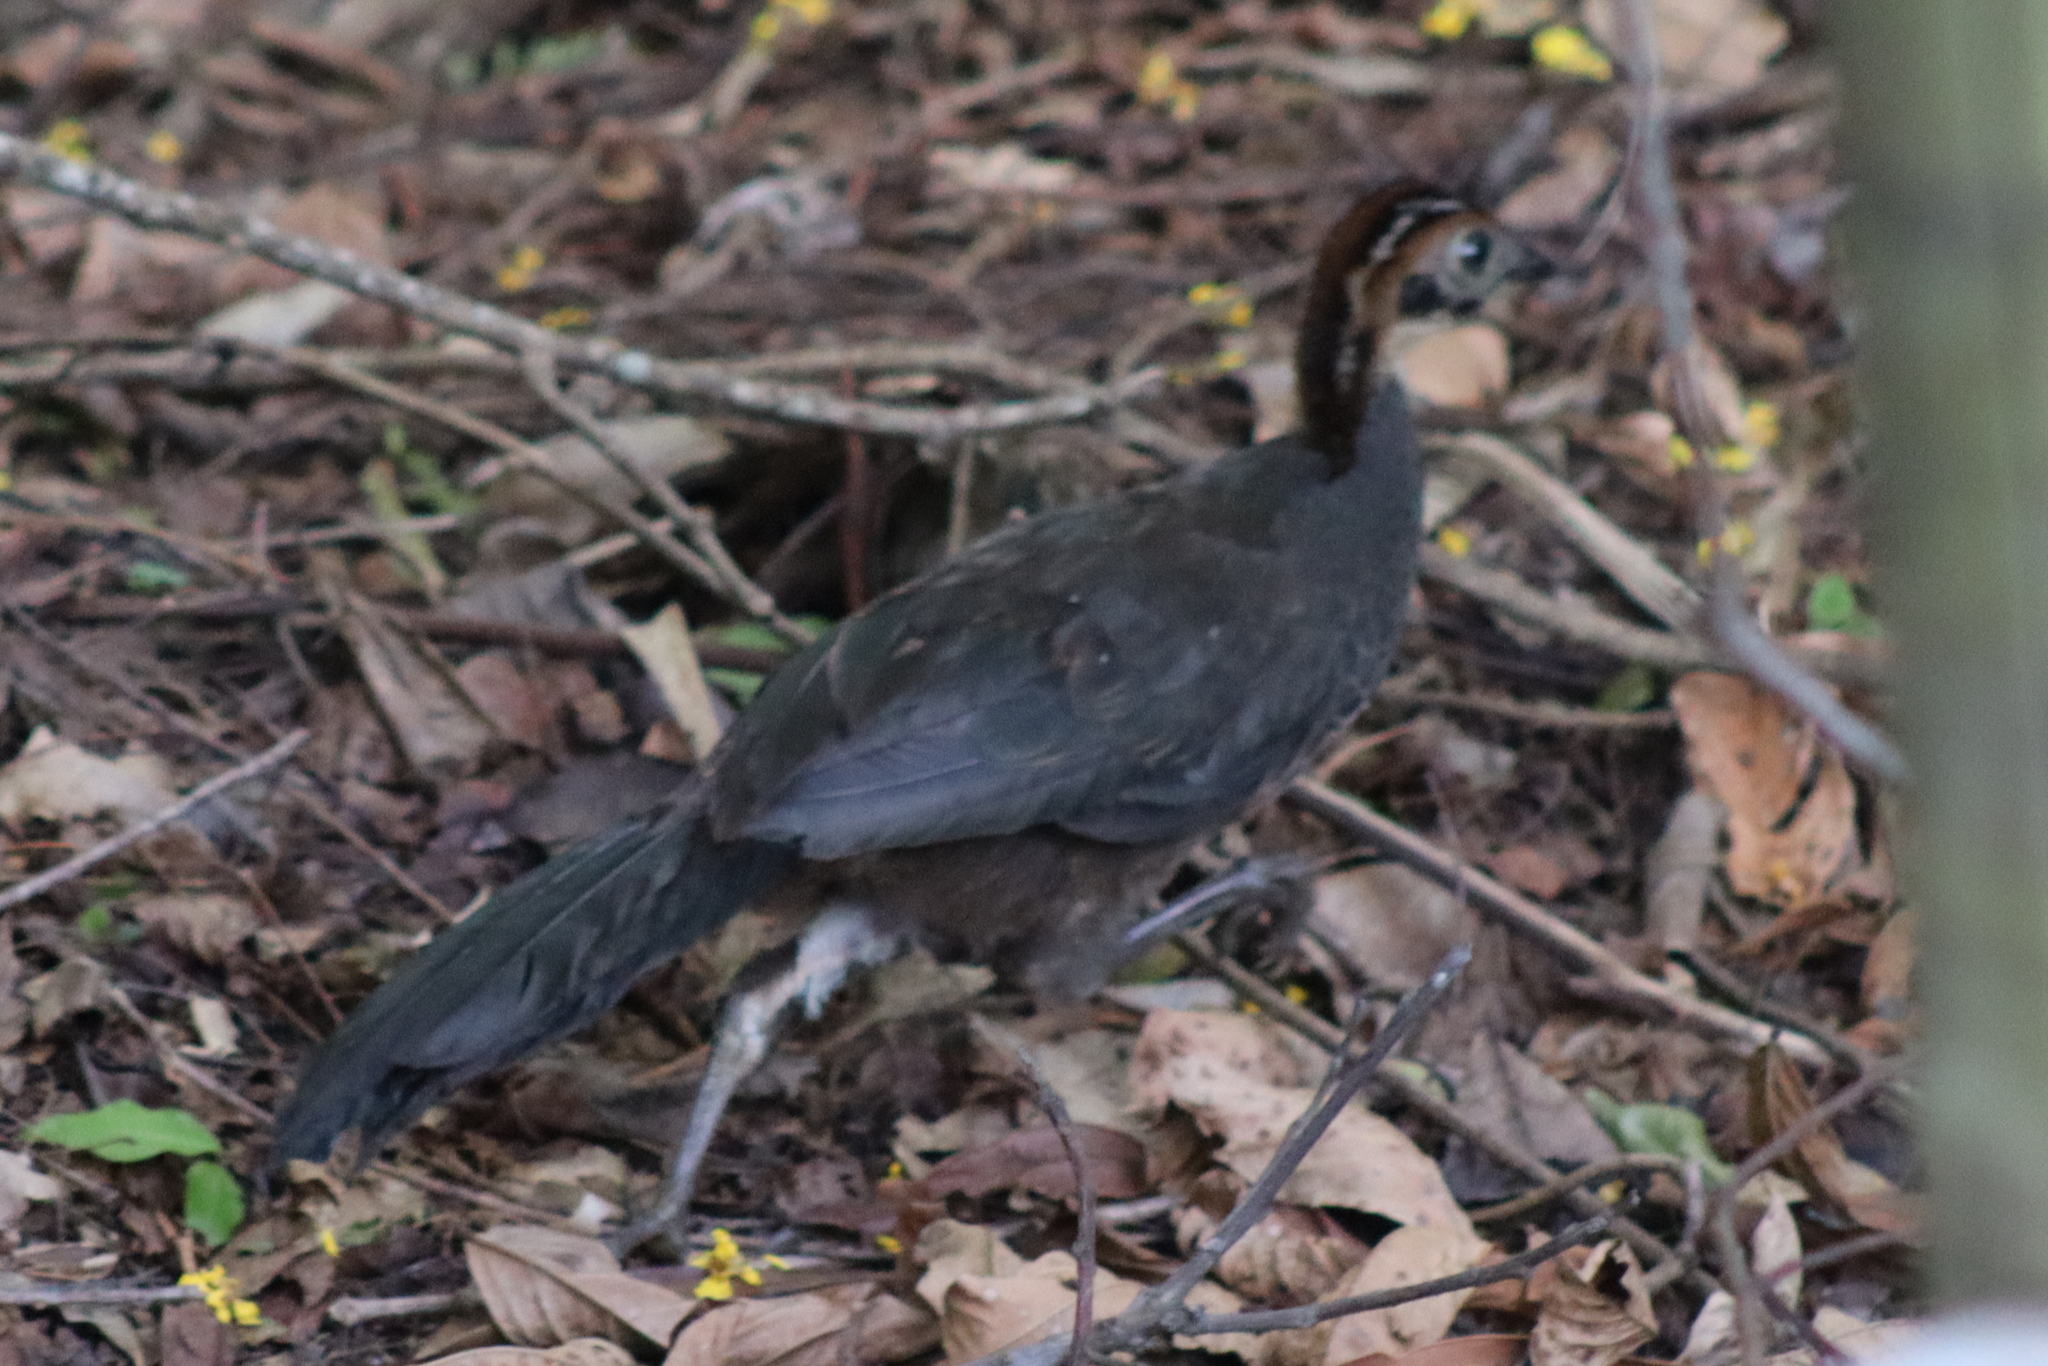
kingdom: Animalia
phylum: Chordata
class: Aves
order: Galliformes
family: Cracidae
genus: Penelope
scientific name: Penelope superciliaris
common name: Rusty-margined guan
